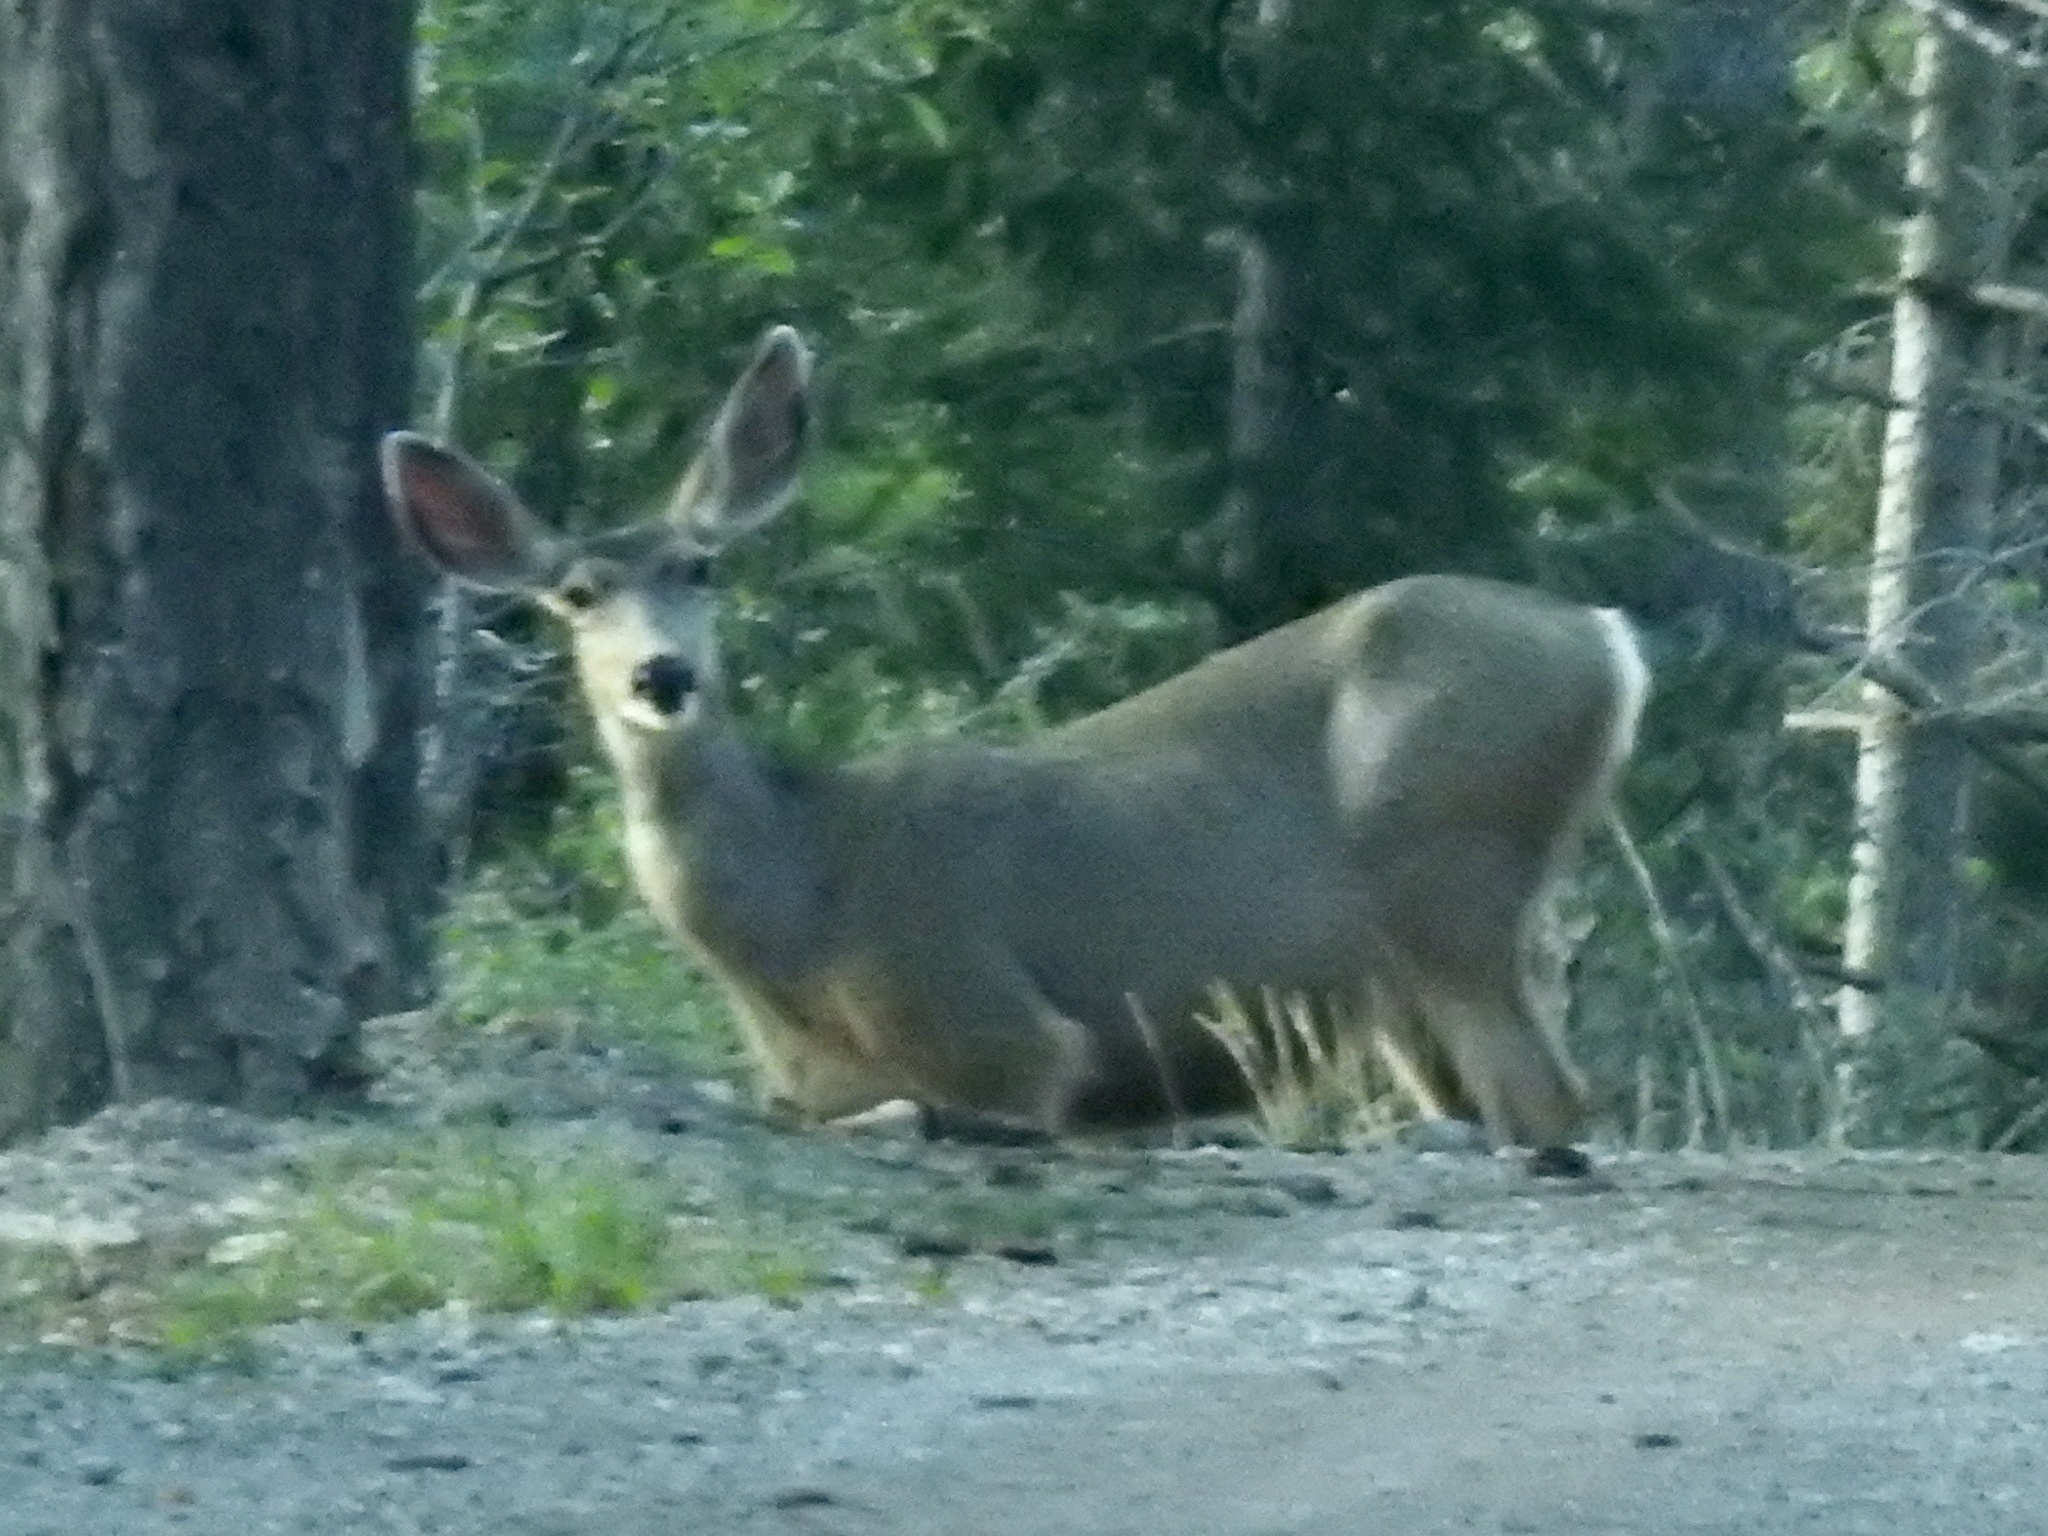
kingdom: Animalia
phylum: Chordata
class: Mammalia
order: Artiodactyla
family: Cervidae
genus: Odocoileus
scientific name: Odocoileus hemionus
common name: Mule deer
